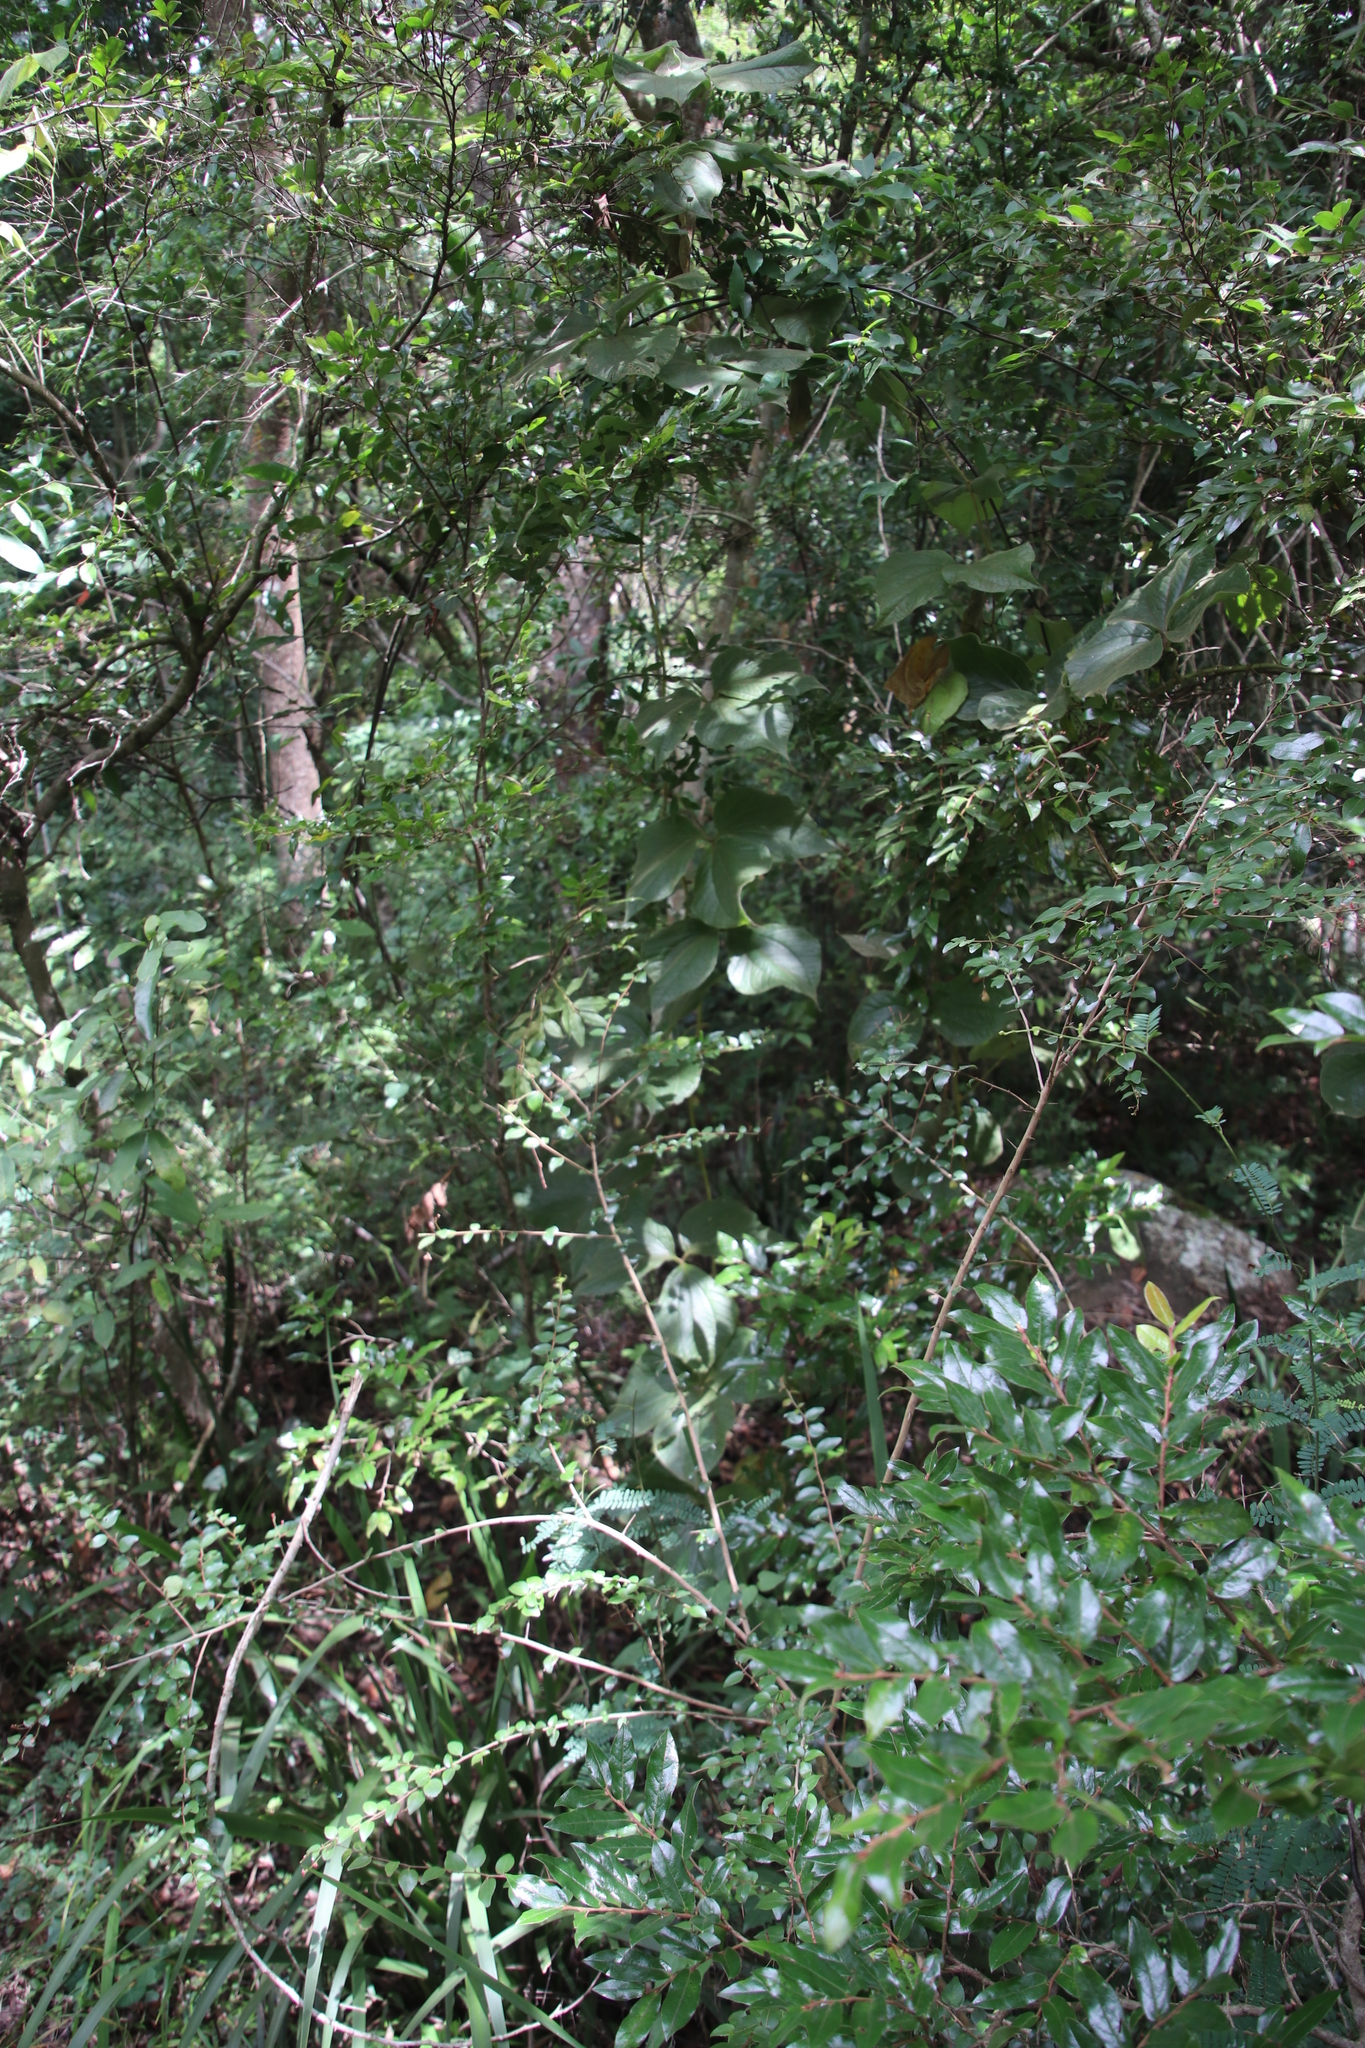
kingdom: Plantae
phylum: Tracheophyta
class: Liliopsida
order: Dioscoreales
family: Dioscoreaceae
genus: Dioscorea
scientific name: Dioscorea dregeana
